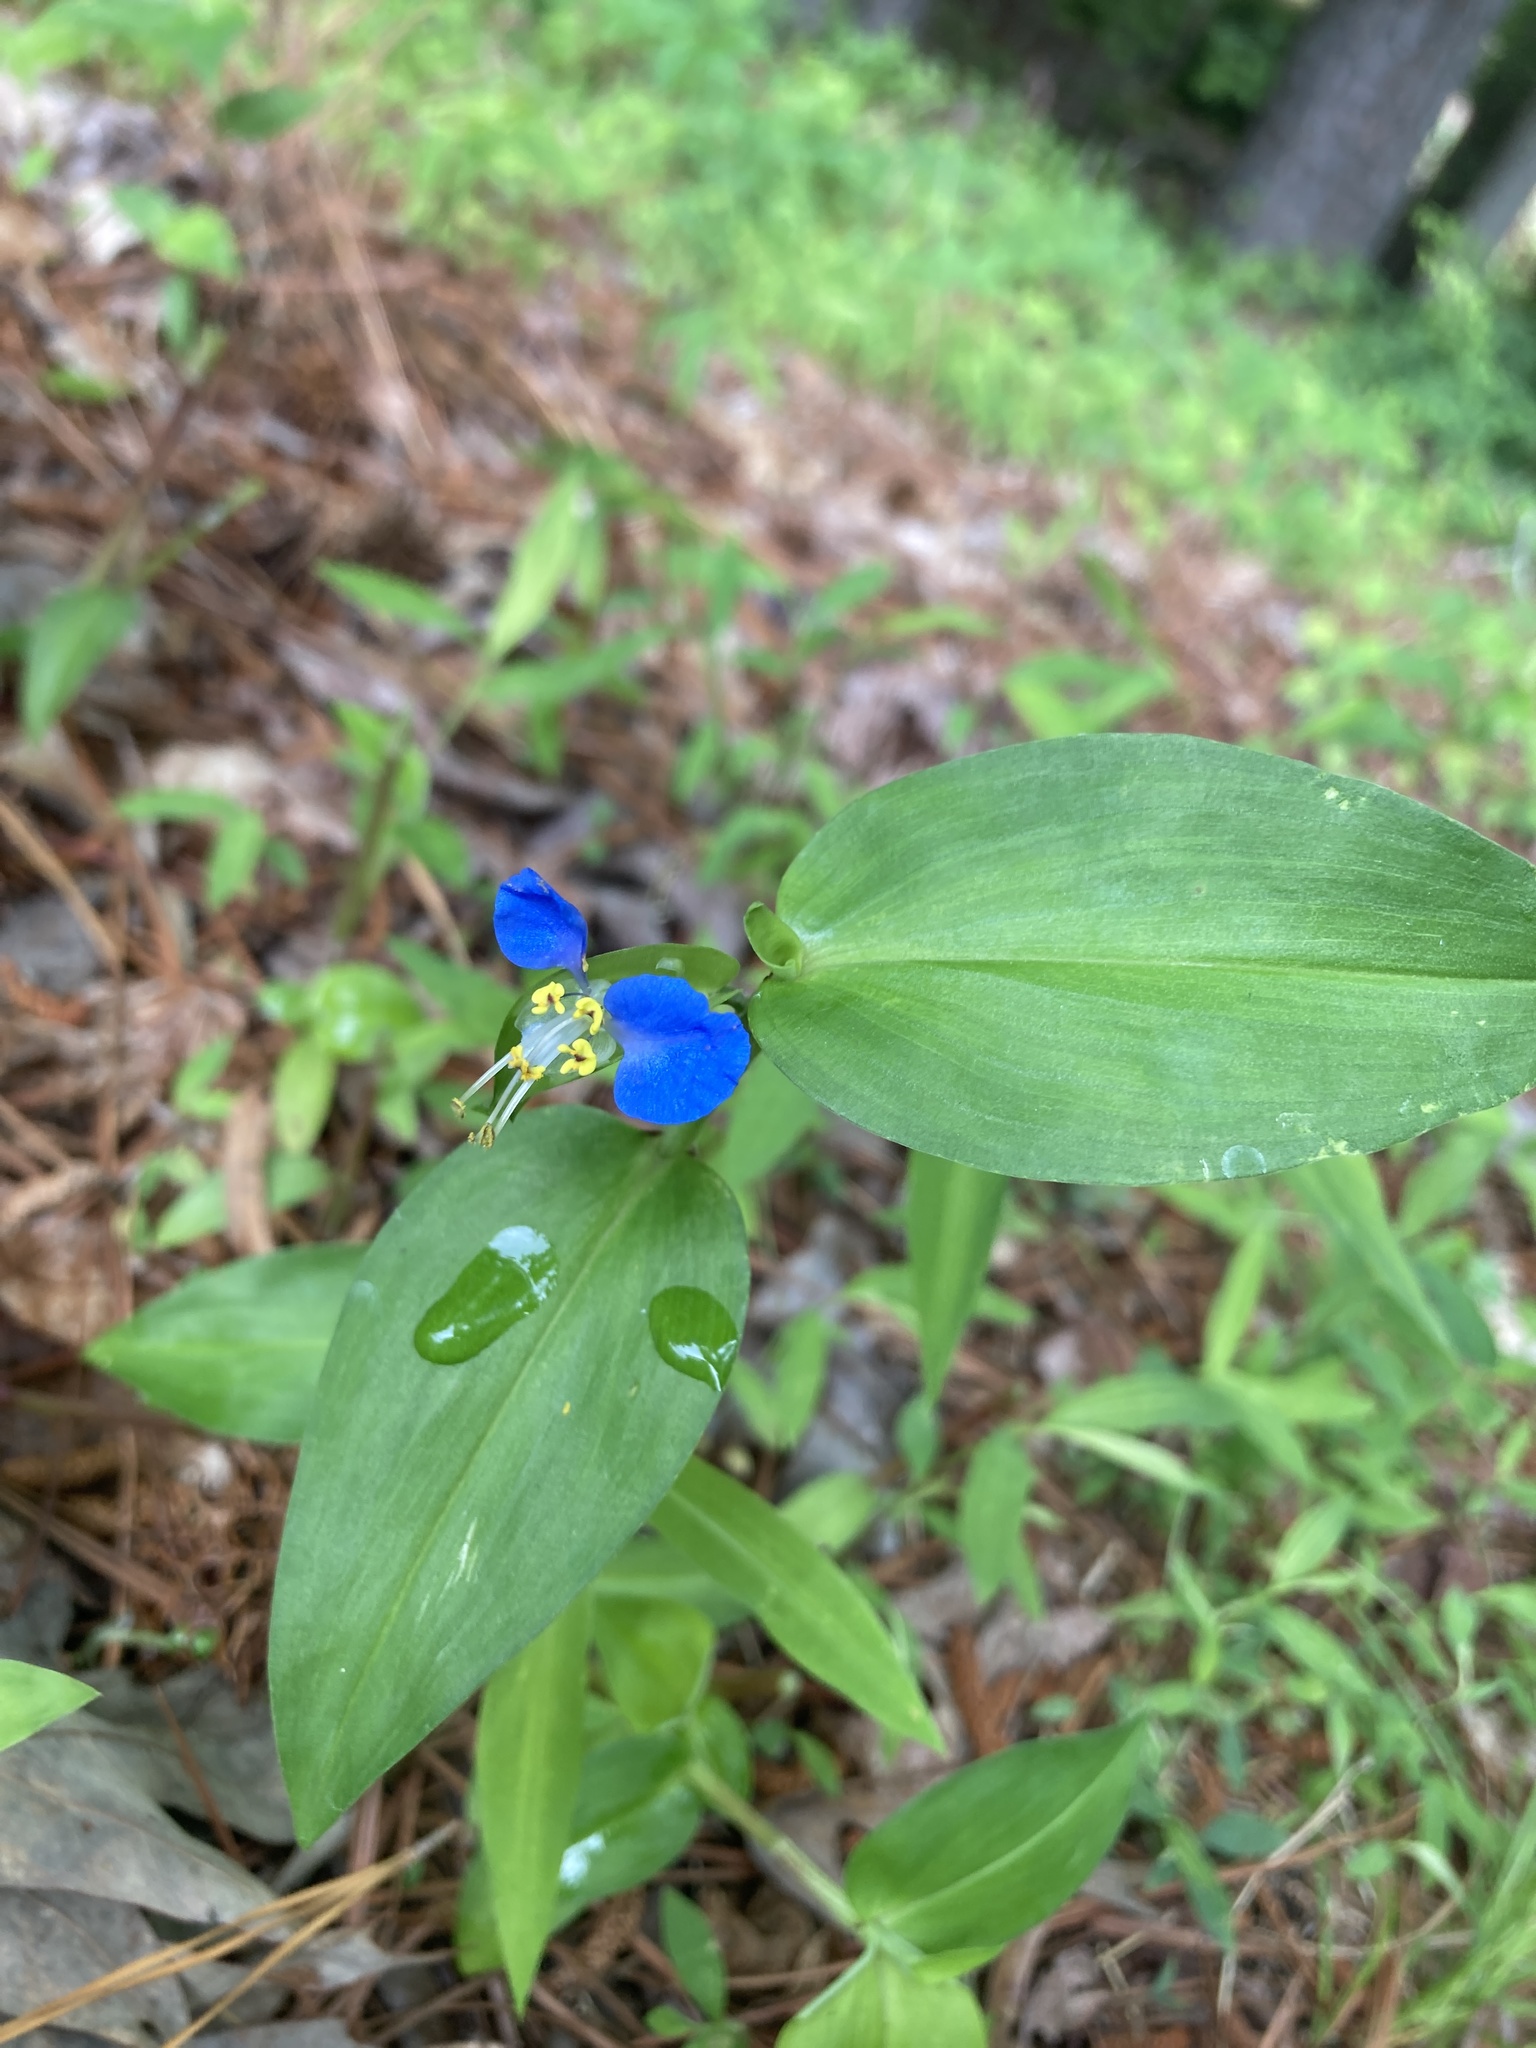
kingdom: Plantae
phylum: Tracheophyta
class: Liliopsida
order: Commelinales
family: Commelinaceae
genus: Commelina
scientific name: Commelina communis
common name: Asiatic dayflower
